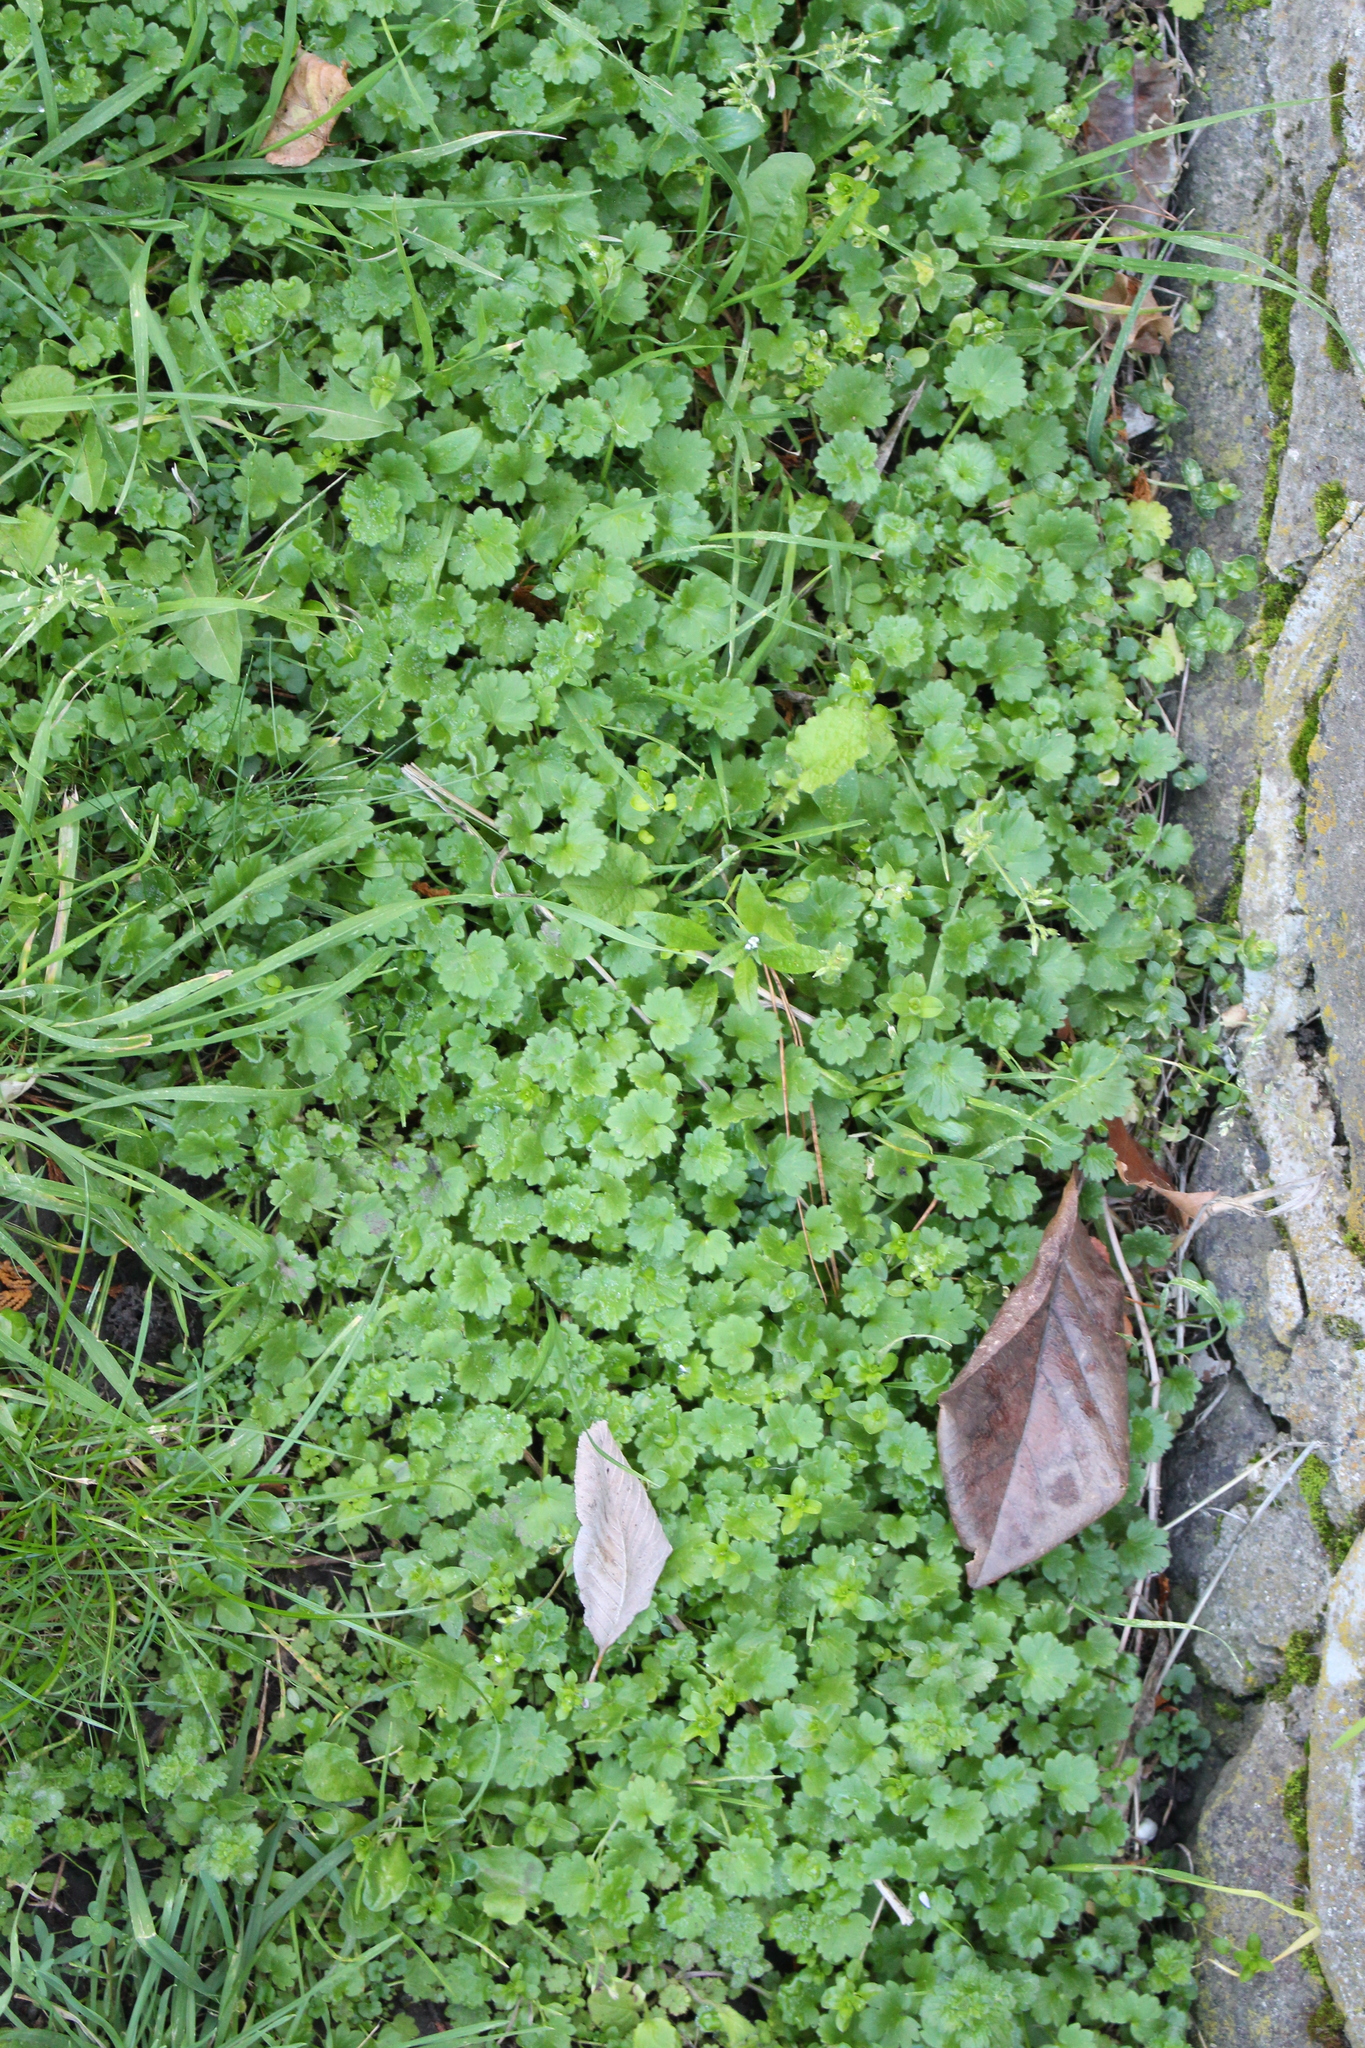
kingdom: Plantae
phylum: Tracheophyta
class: Magnoliopsida
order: Ranunculales
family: Ranunculaceae
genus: Ranunculus
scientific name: Ranunculus parviflorus
